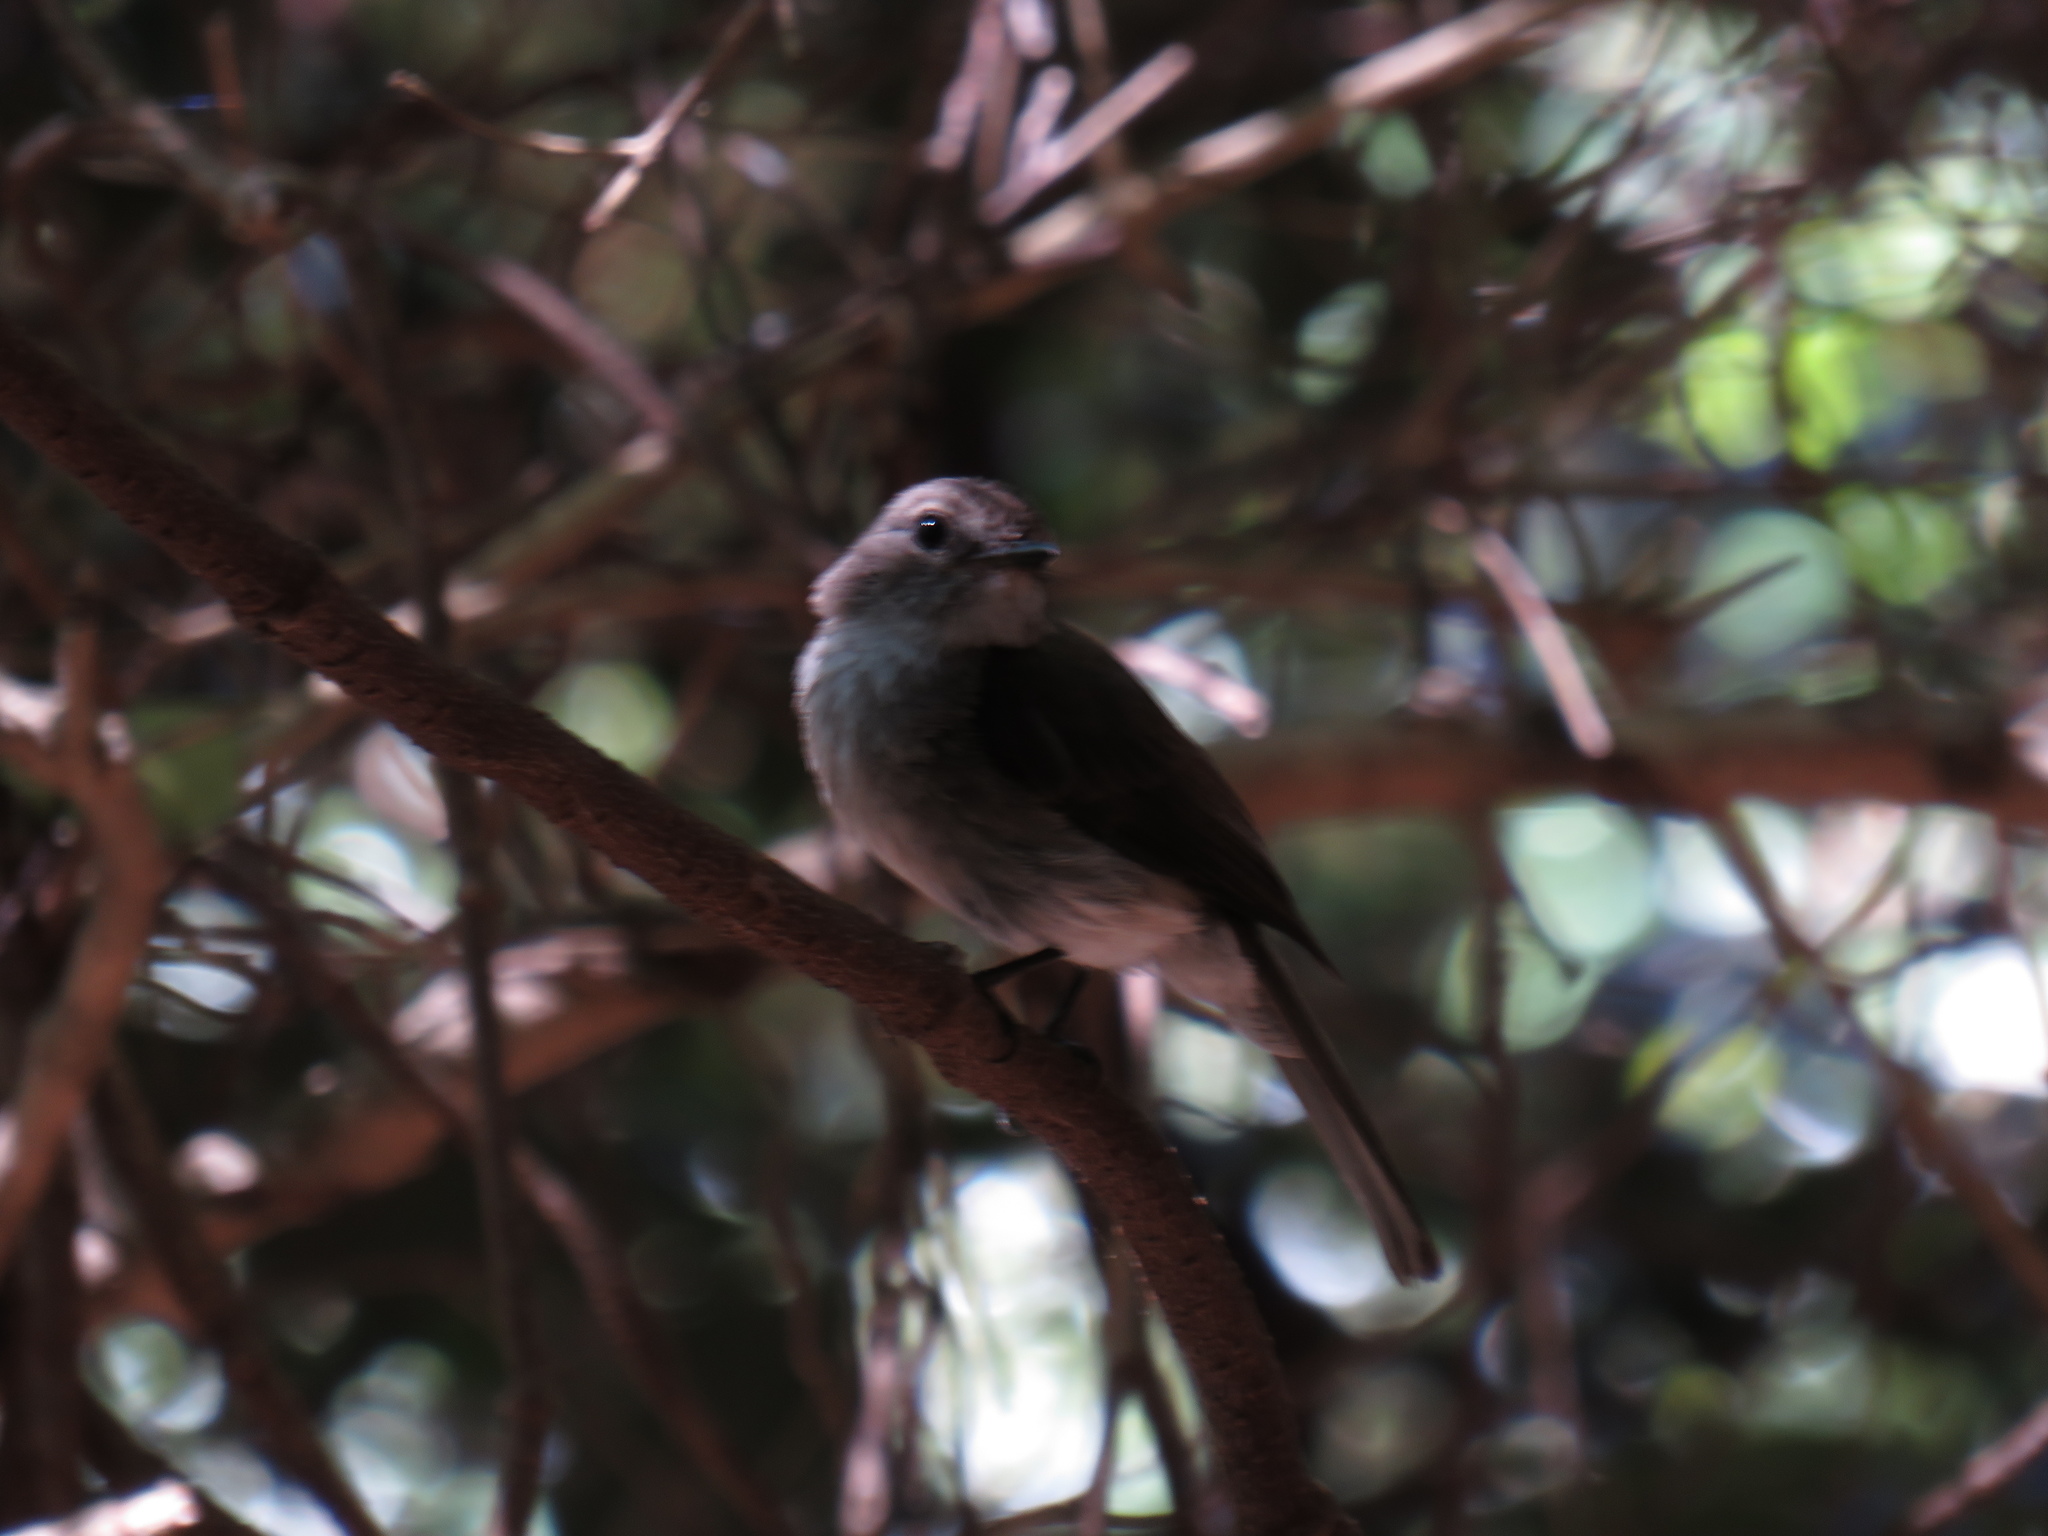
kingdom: Animalia
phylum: Chordata
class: Aves
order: Passeriformes
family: Muscicapidae
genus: Muscicapa
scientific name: Muscicapa adusta
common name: African dusky flycatcher
